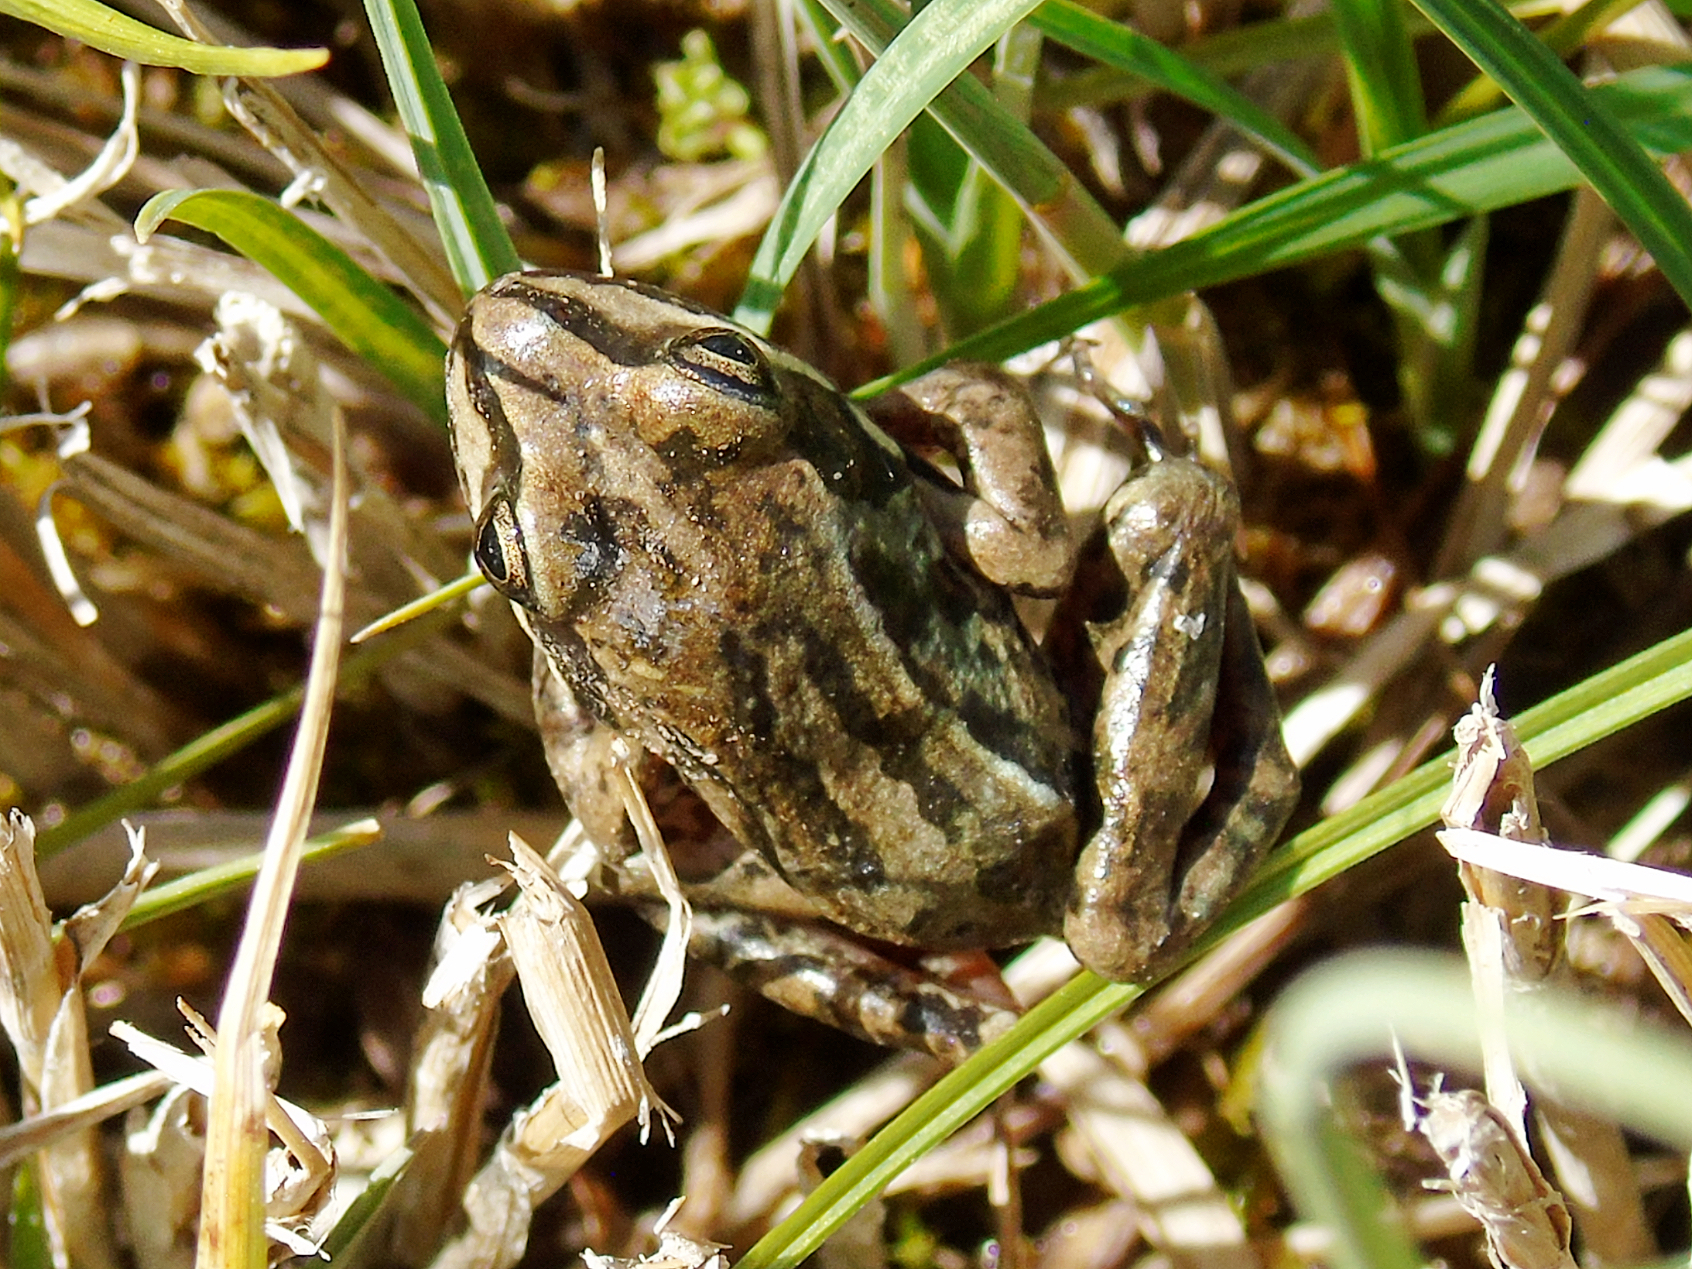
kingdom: Animalia
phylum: Chordata
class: Amphibia
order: Anura
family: Ranidae
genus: Rana
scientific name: Rana asiatica
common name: Central asian brown frog
